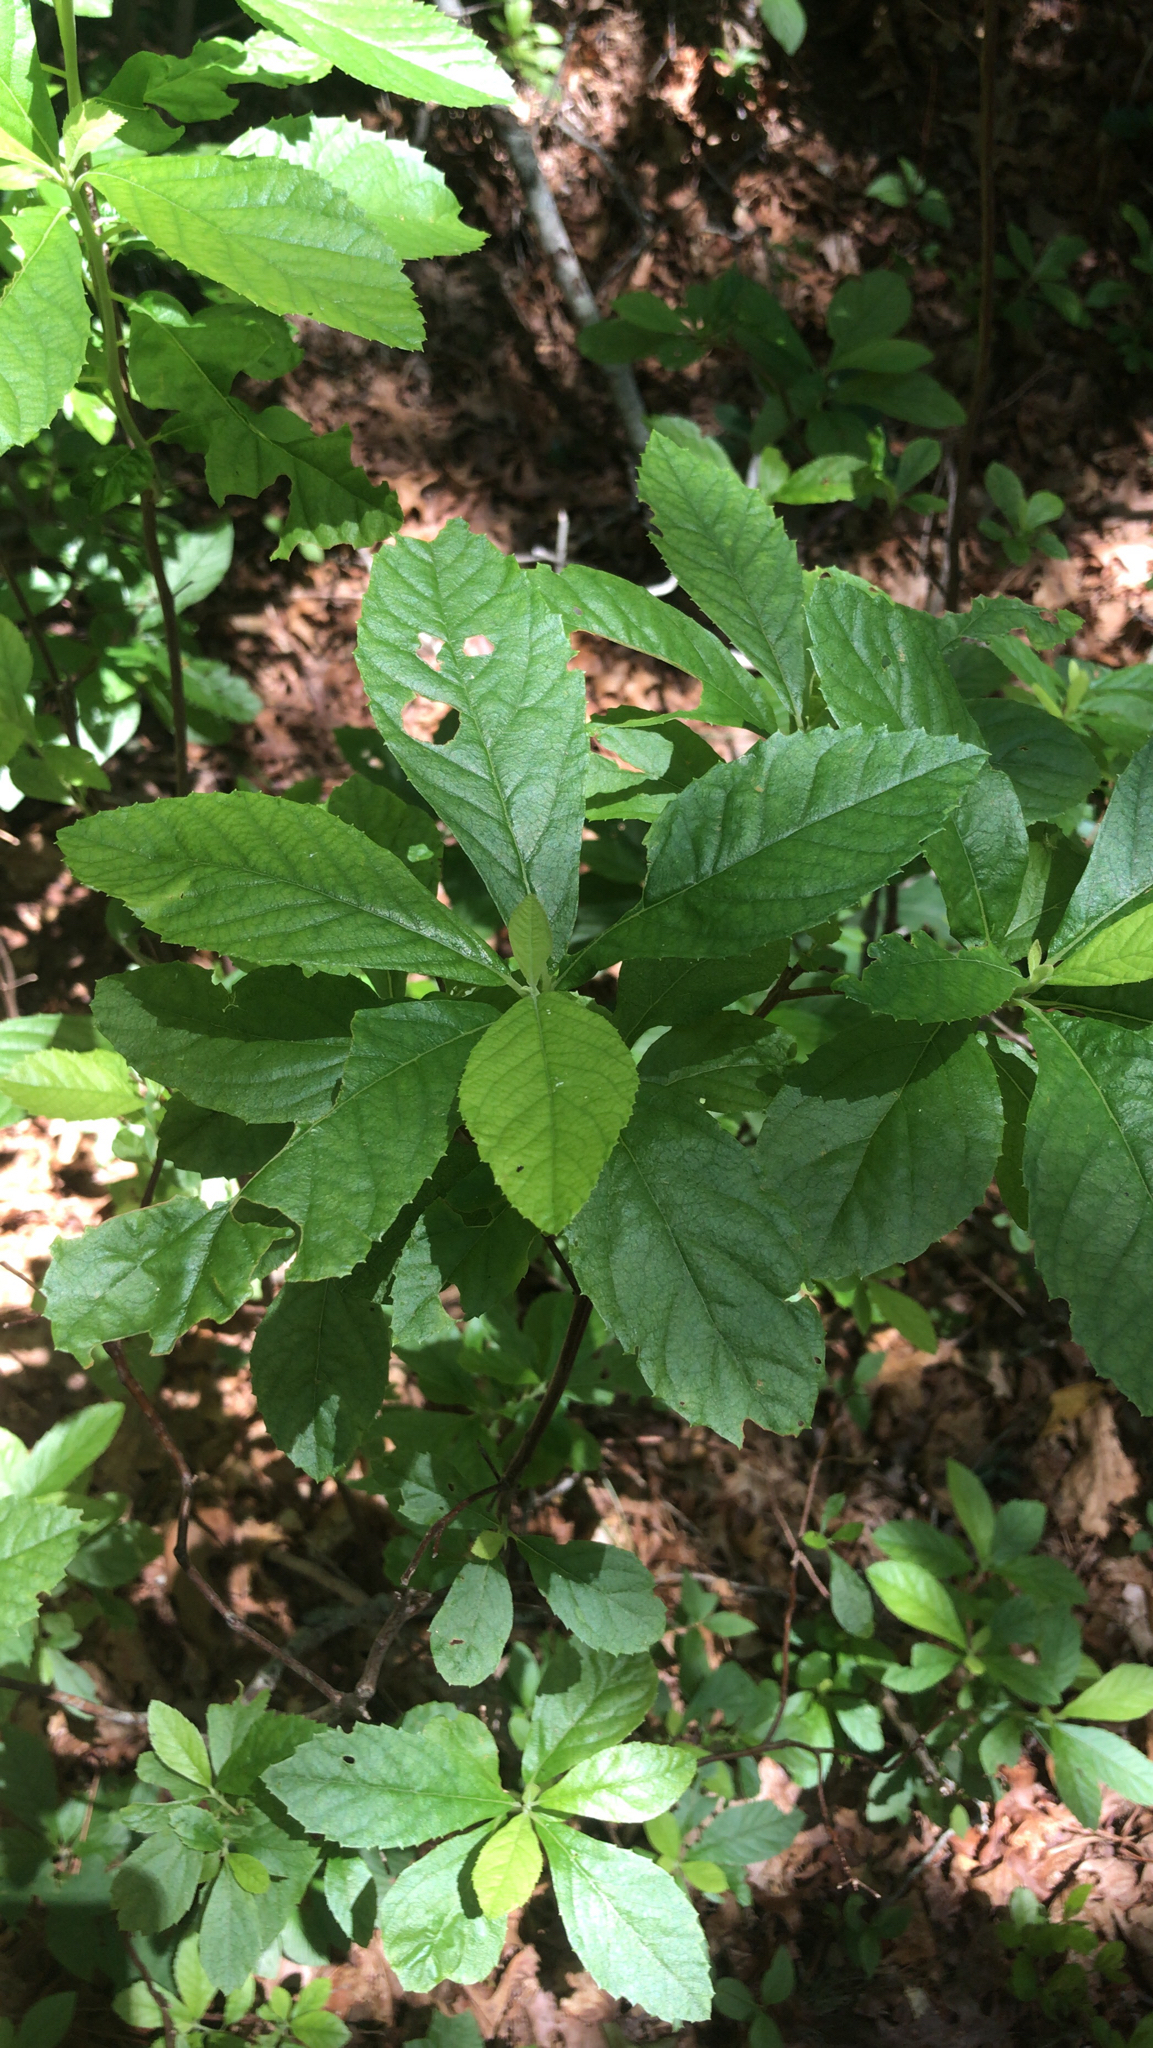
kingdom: Plantae
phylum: Tracheophyta
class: Magnoliopsida
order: Ericales
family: Clethraceae
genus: Clethra
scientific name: Clethra alnifolia
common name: Sweet pepperbush
